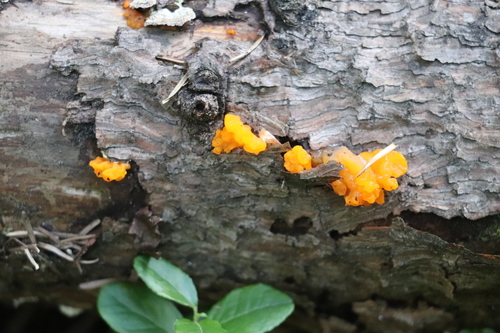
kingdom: Fungi
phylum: Basidiomycota
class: Dacrymycetes
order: Dacrymycetales
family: Dacrymycetaceae
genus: Dacrymyces
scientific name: Dacrymyces chrysospermus
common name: Orange jelly spot
